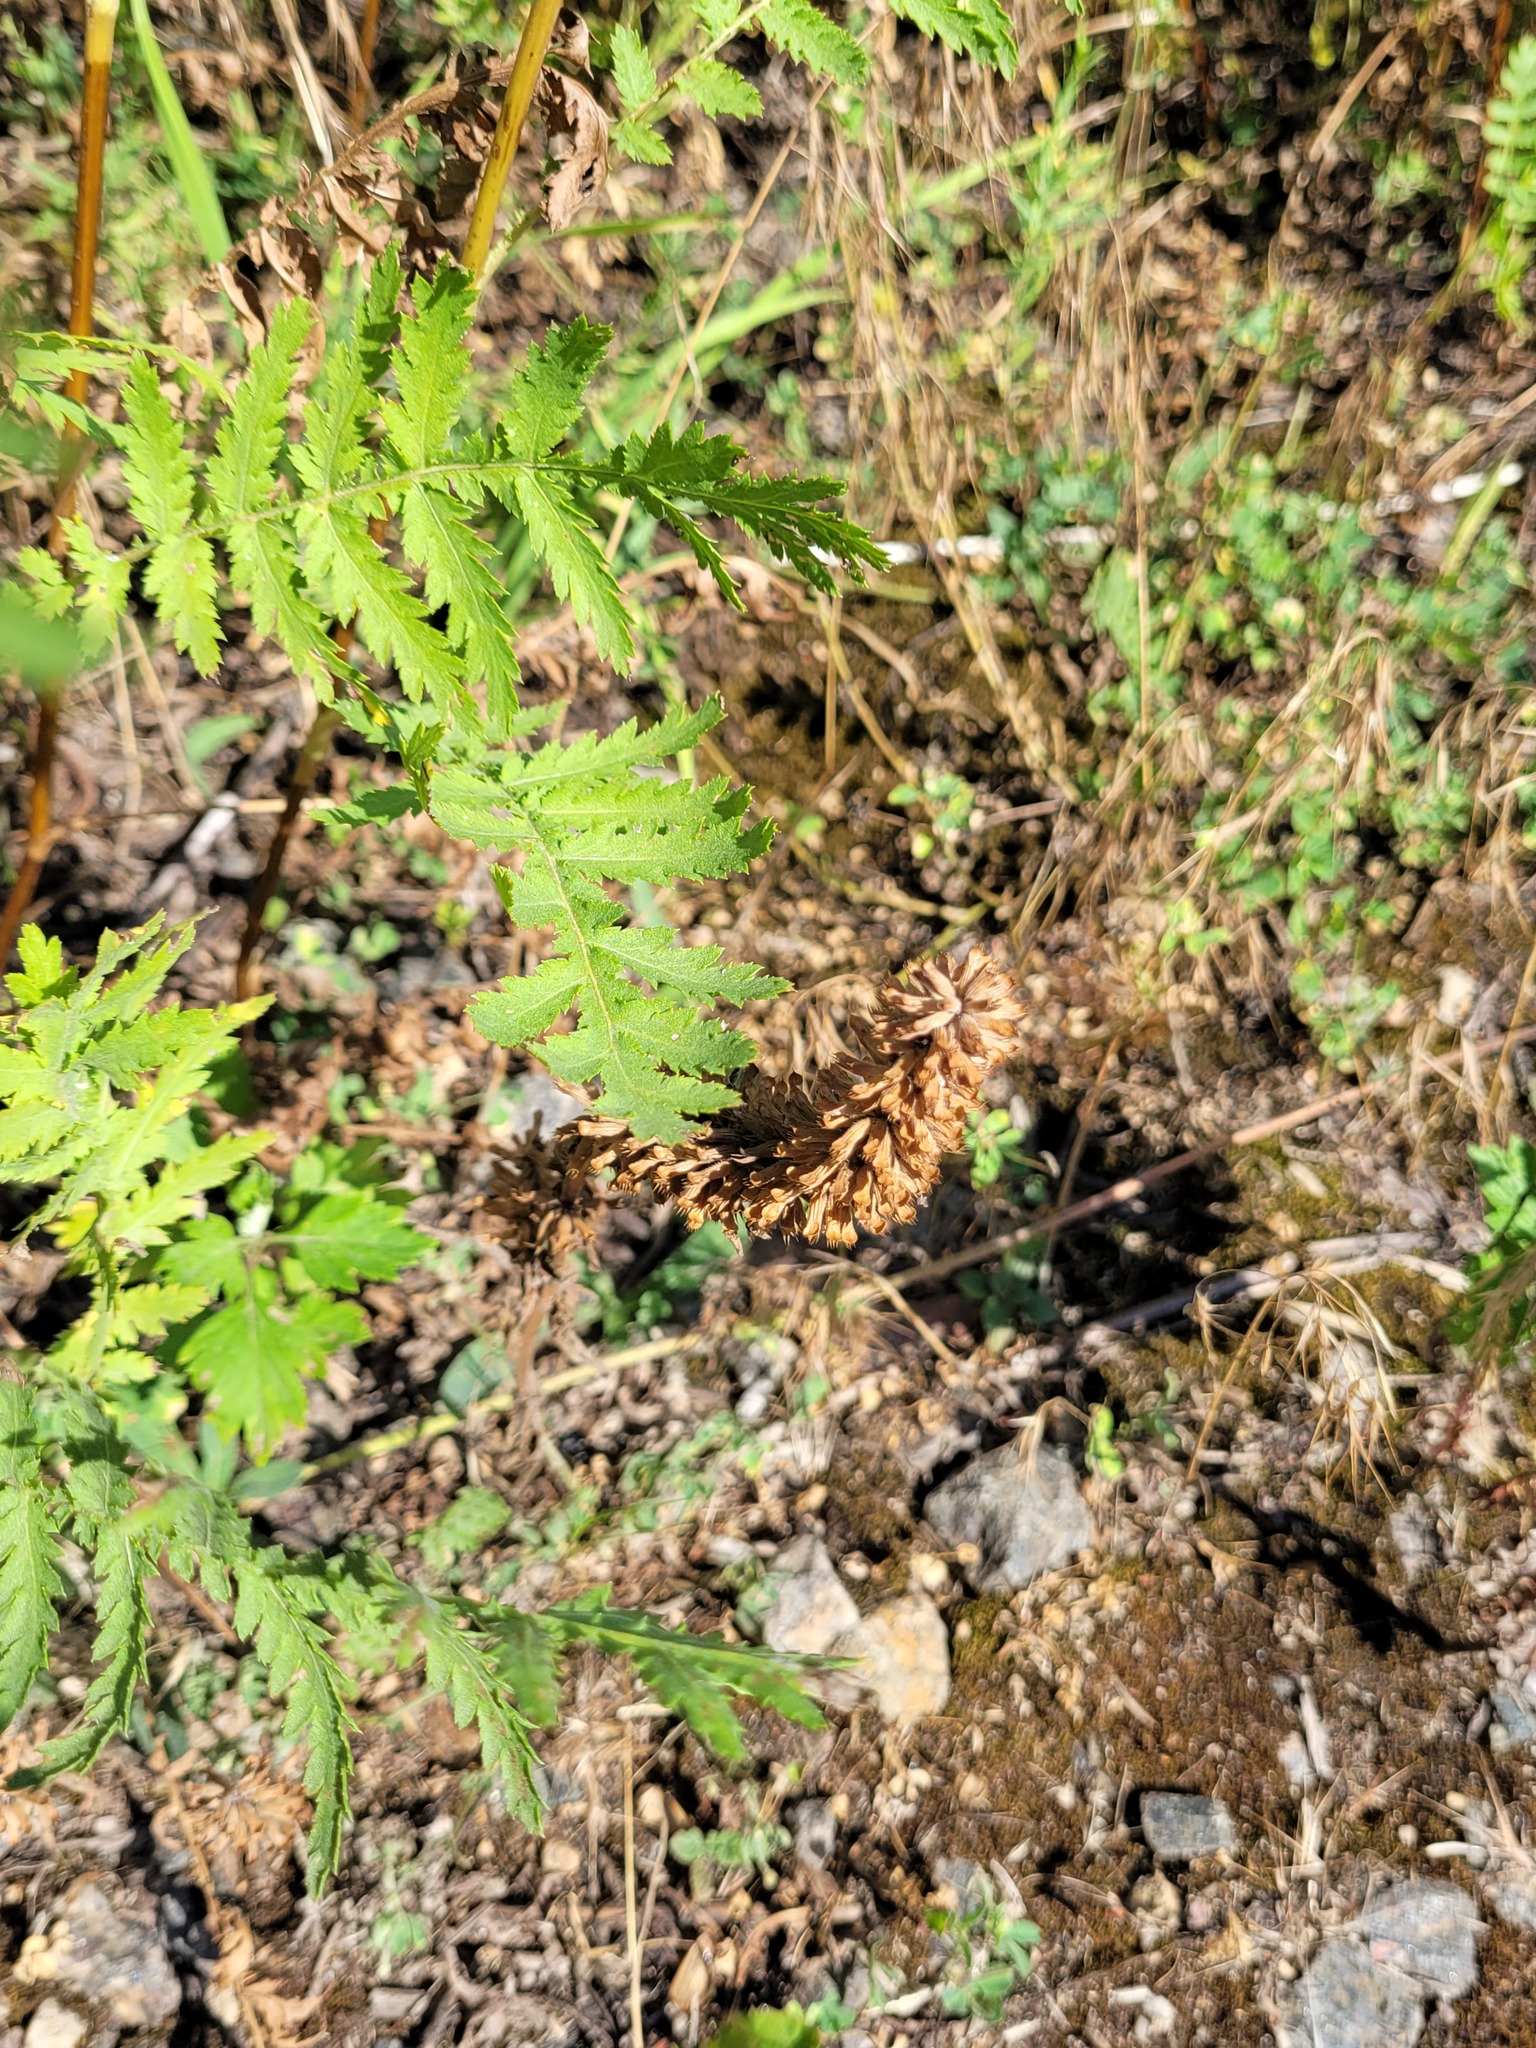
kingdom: Plantae
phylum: Tracheophyta
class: Magnoliopsida
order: Lamiales
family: Lamiaceae
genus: Dracocephalum
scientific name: Dracocephalum thymiflorum
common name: Thymeleaf dragonhead
